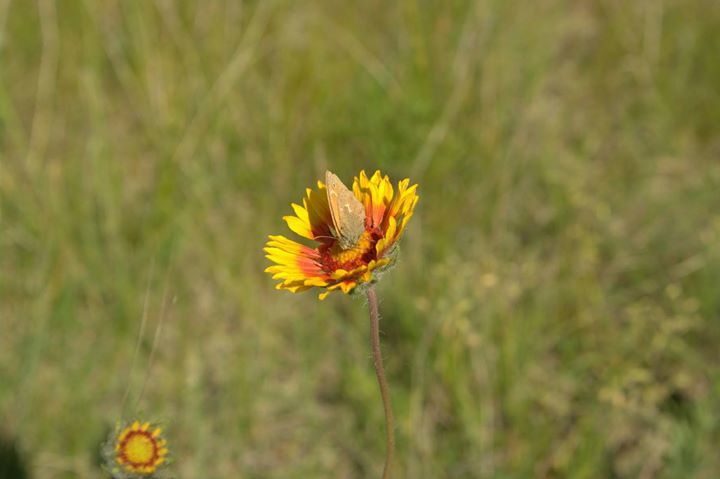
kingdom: Plantae
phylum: Tracheophyta
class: Magnoliopsida
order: Asterales
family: Asteraceae
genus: Gaillardia
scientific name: Gaillardia aristata
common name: Blanket-flower
